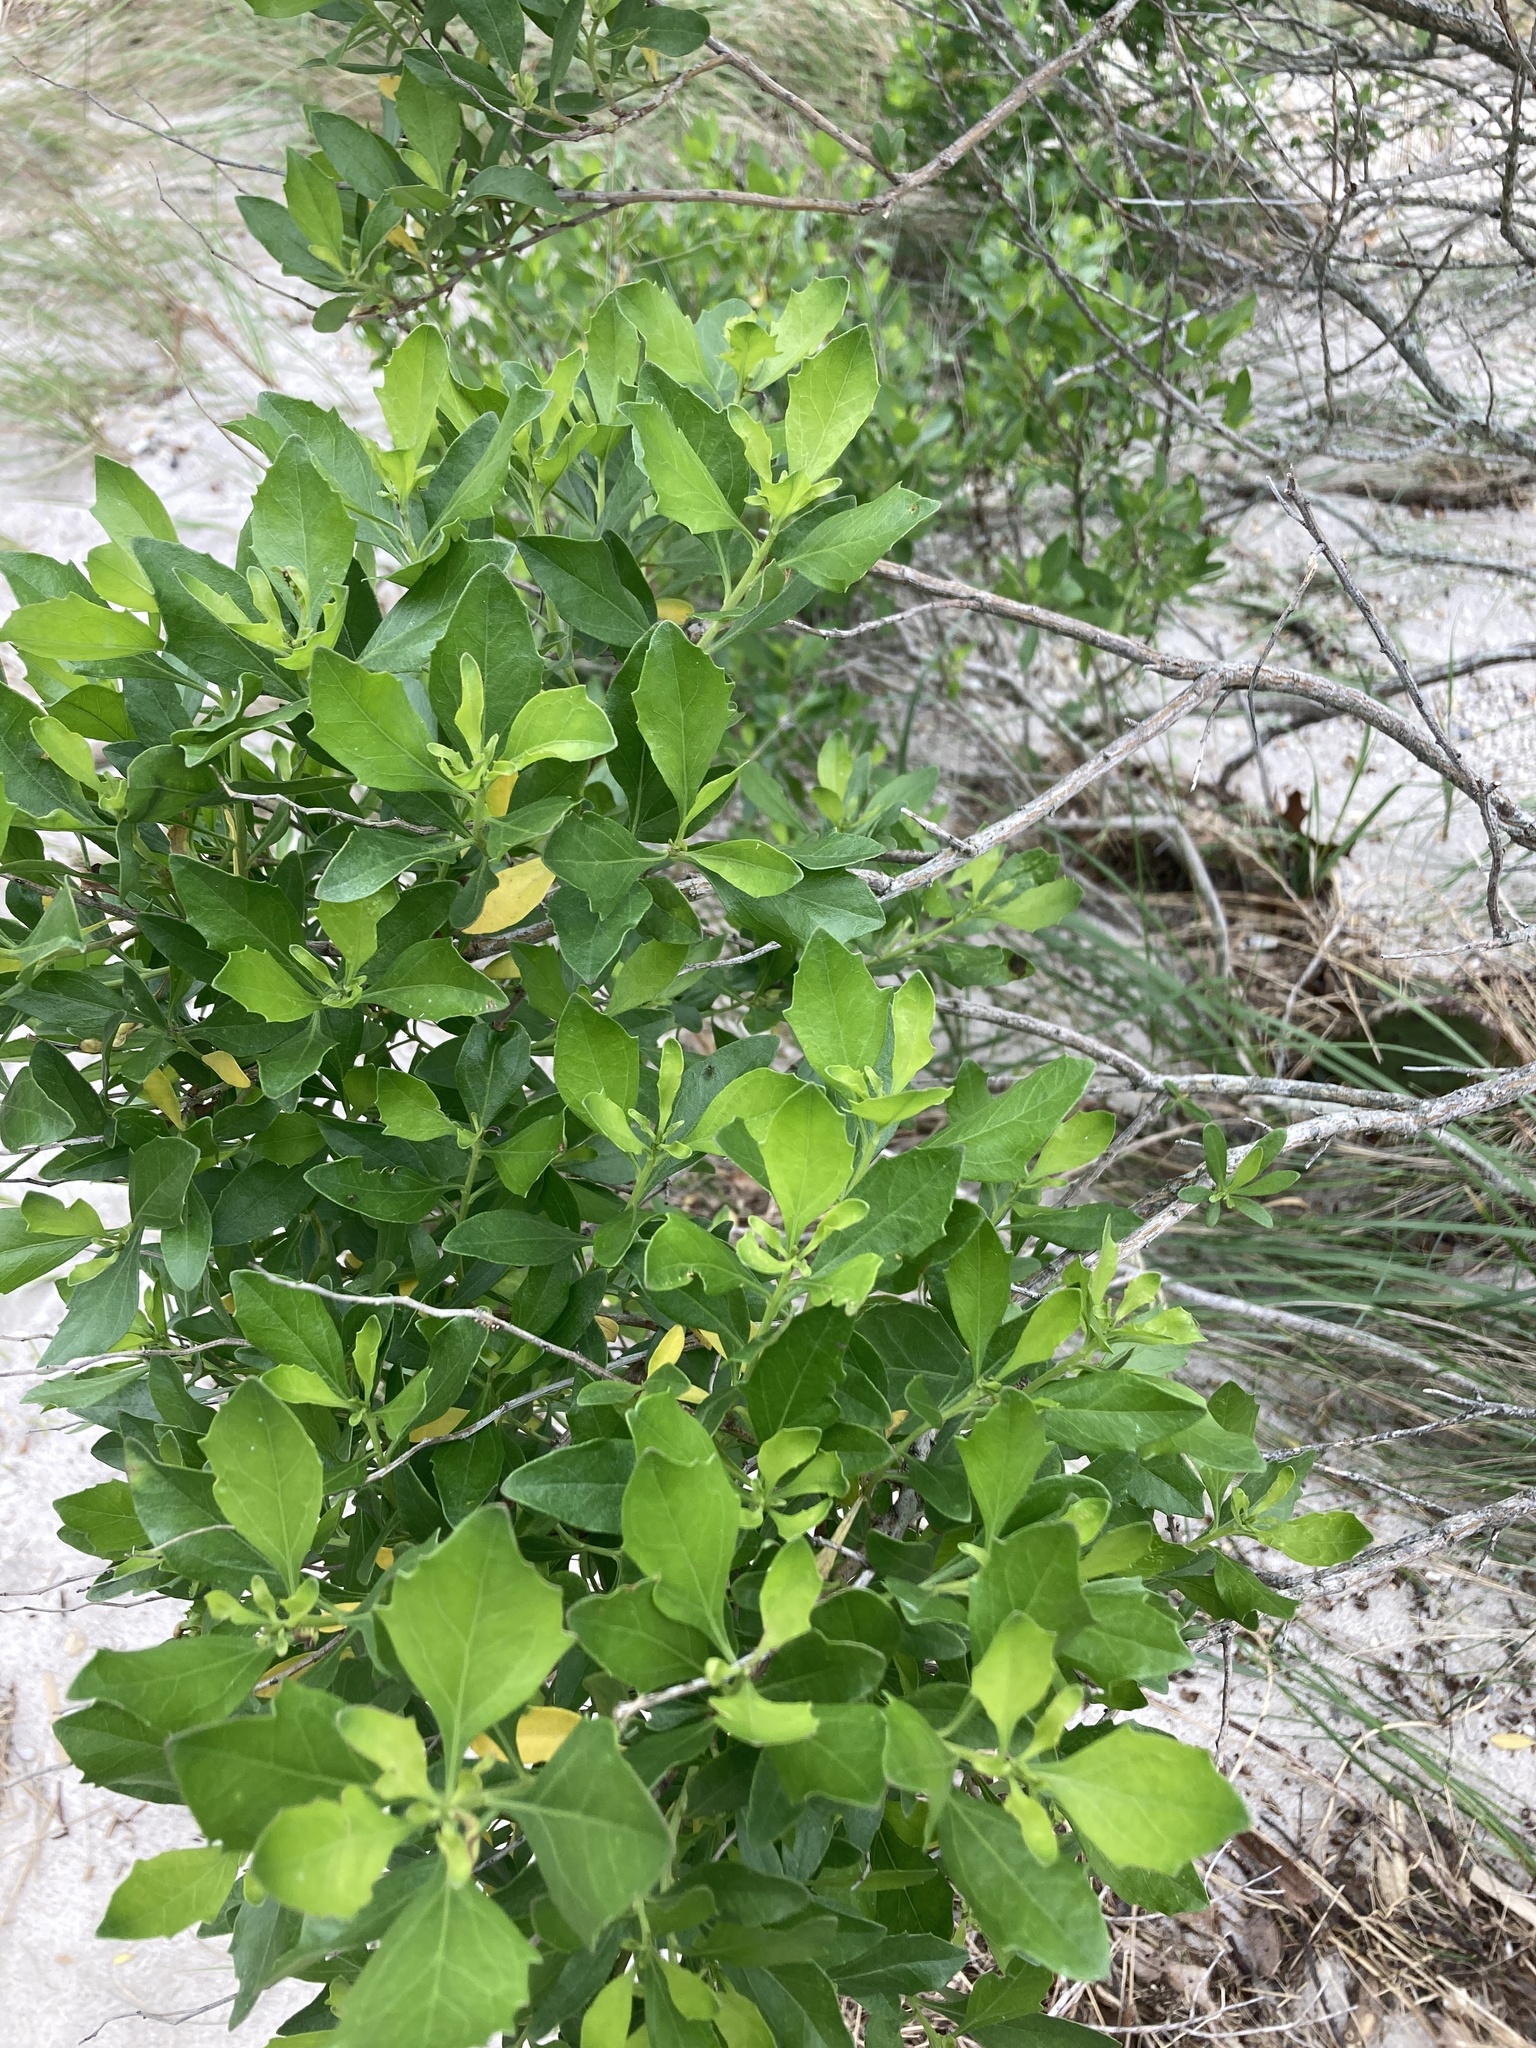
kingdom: Plantae
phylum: Tracheophyta
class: Magnoliopsida
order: Asterales
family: Asteraceae
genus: Iva
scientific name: Iva frutescens
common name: Big-leaved marsh-elder
